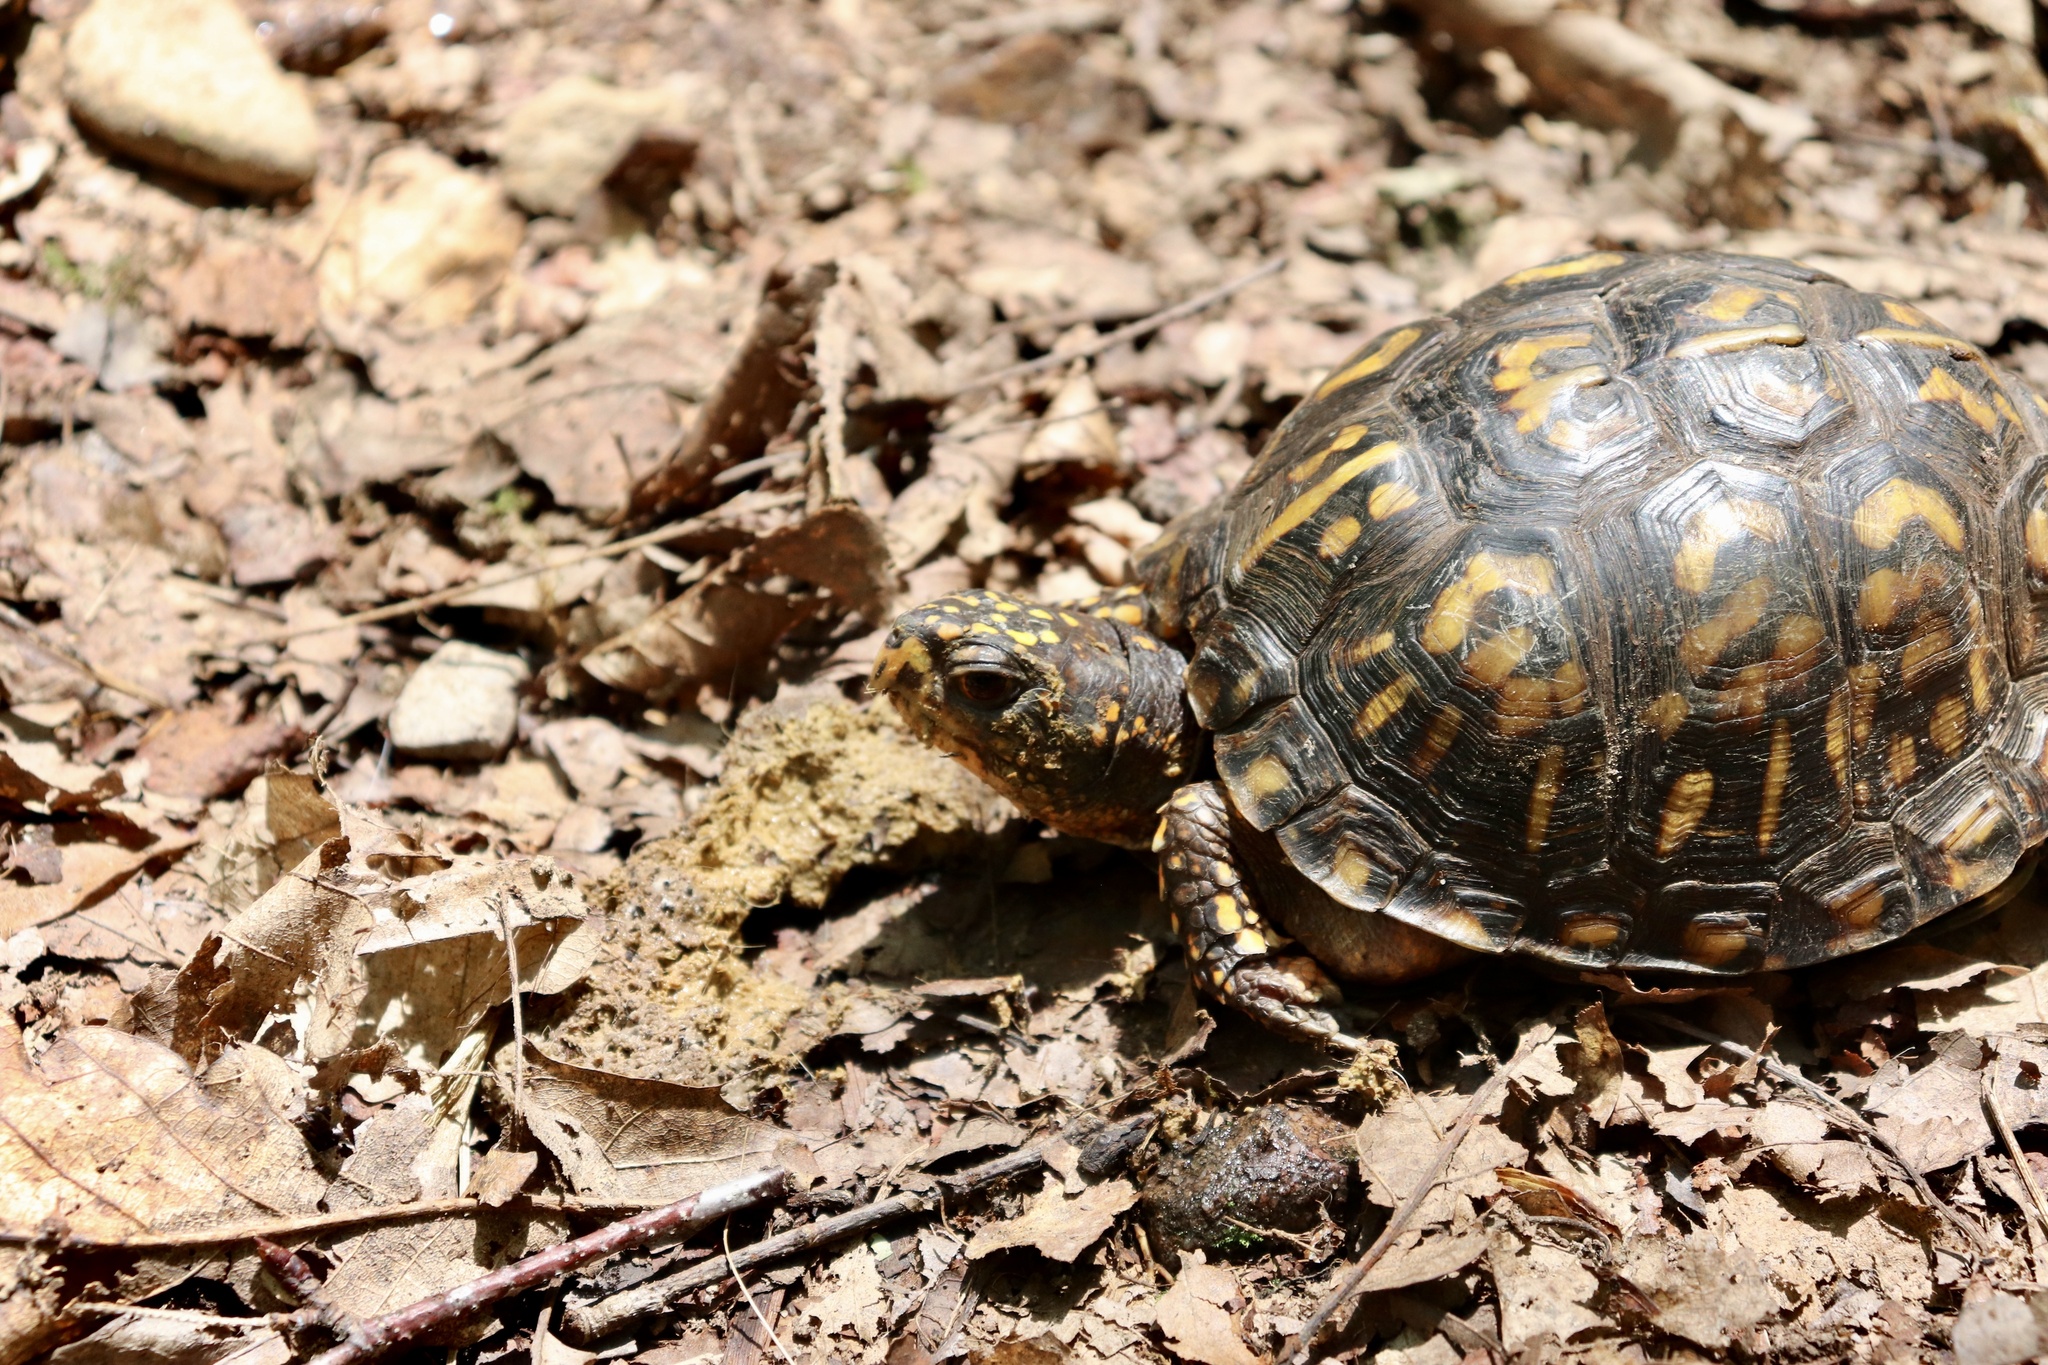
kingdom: Animalia
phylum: Chordata
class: Testudines
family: Emydidae
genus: Terrapene
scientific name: Terrapene carolina
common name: Common box turtle
